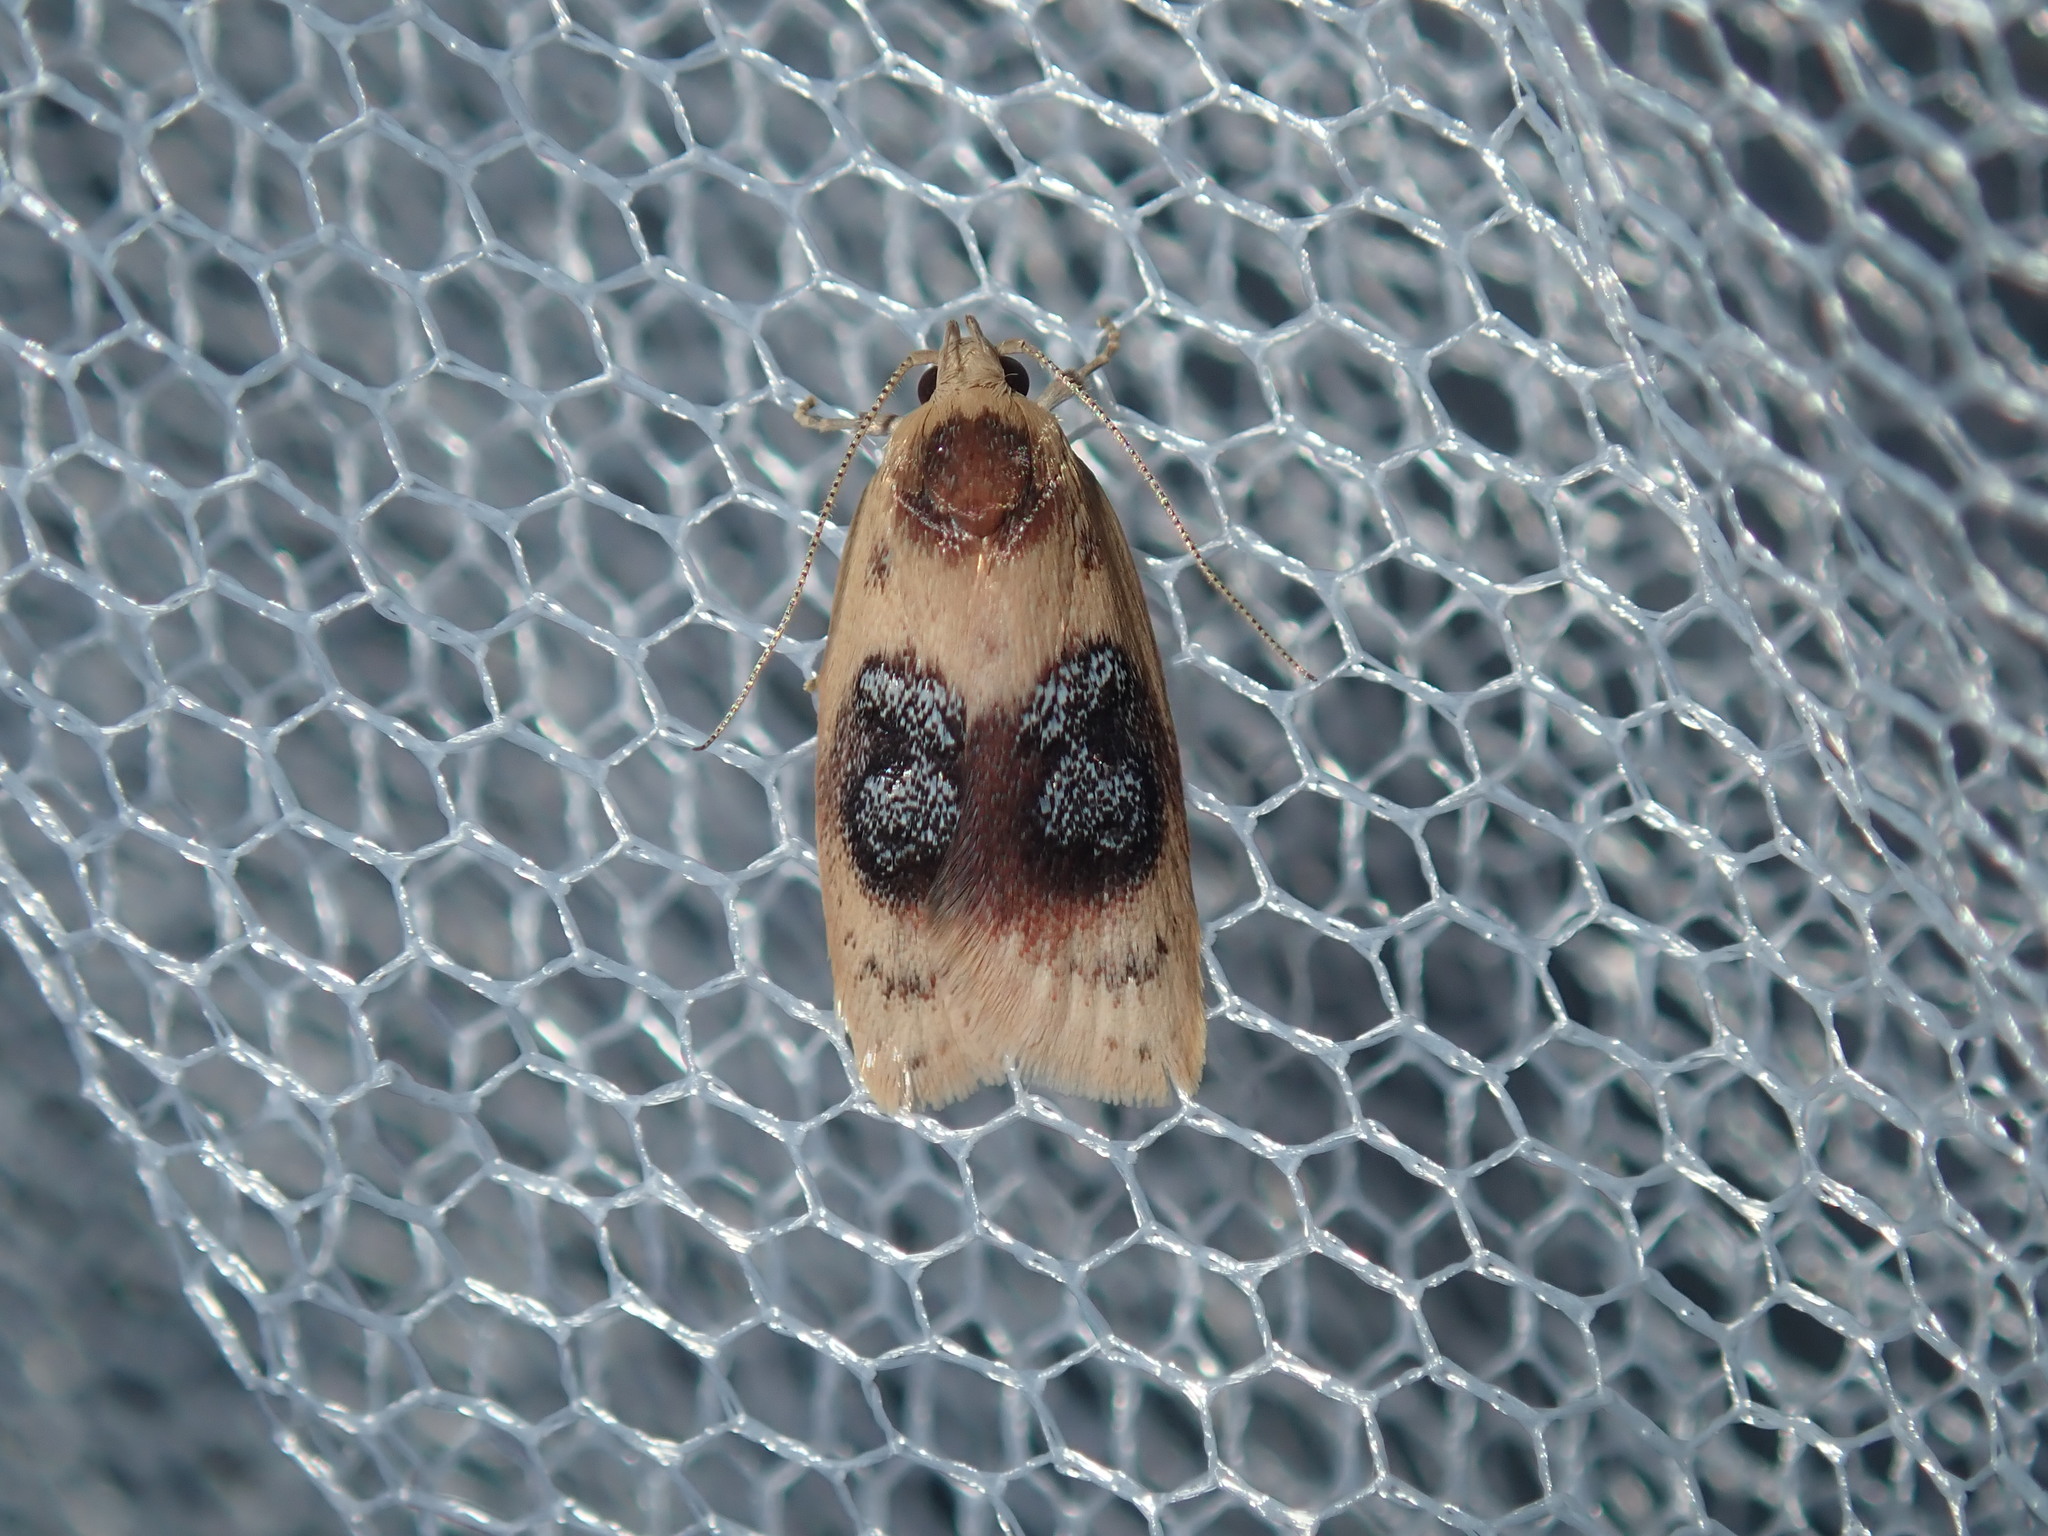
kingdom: Animalia
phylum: Arthropoda
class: Insecta
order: Lepidoptera
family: Oecophoridae
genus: Garrha
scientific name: Garrha ocellifera
